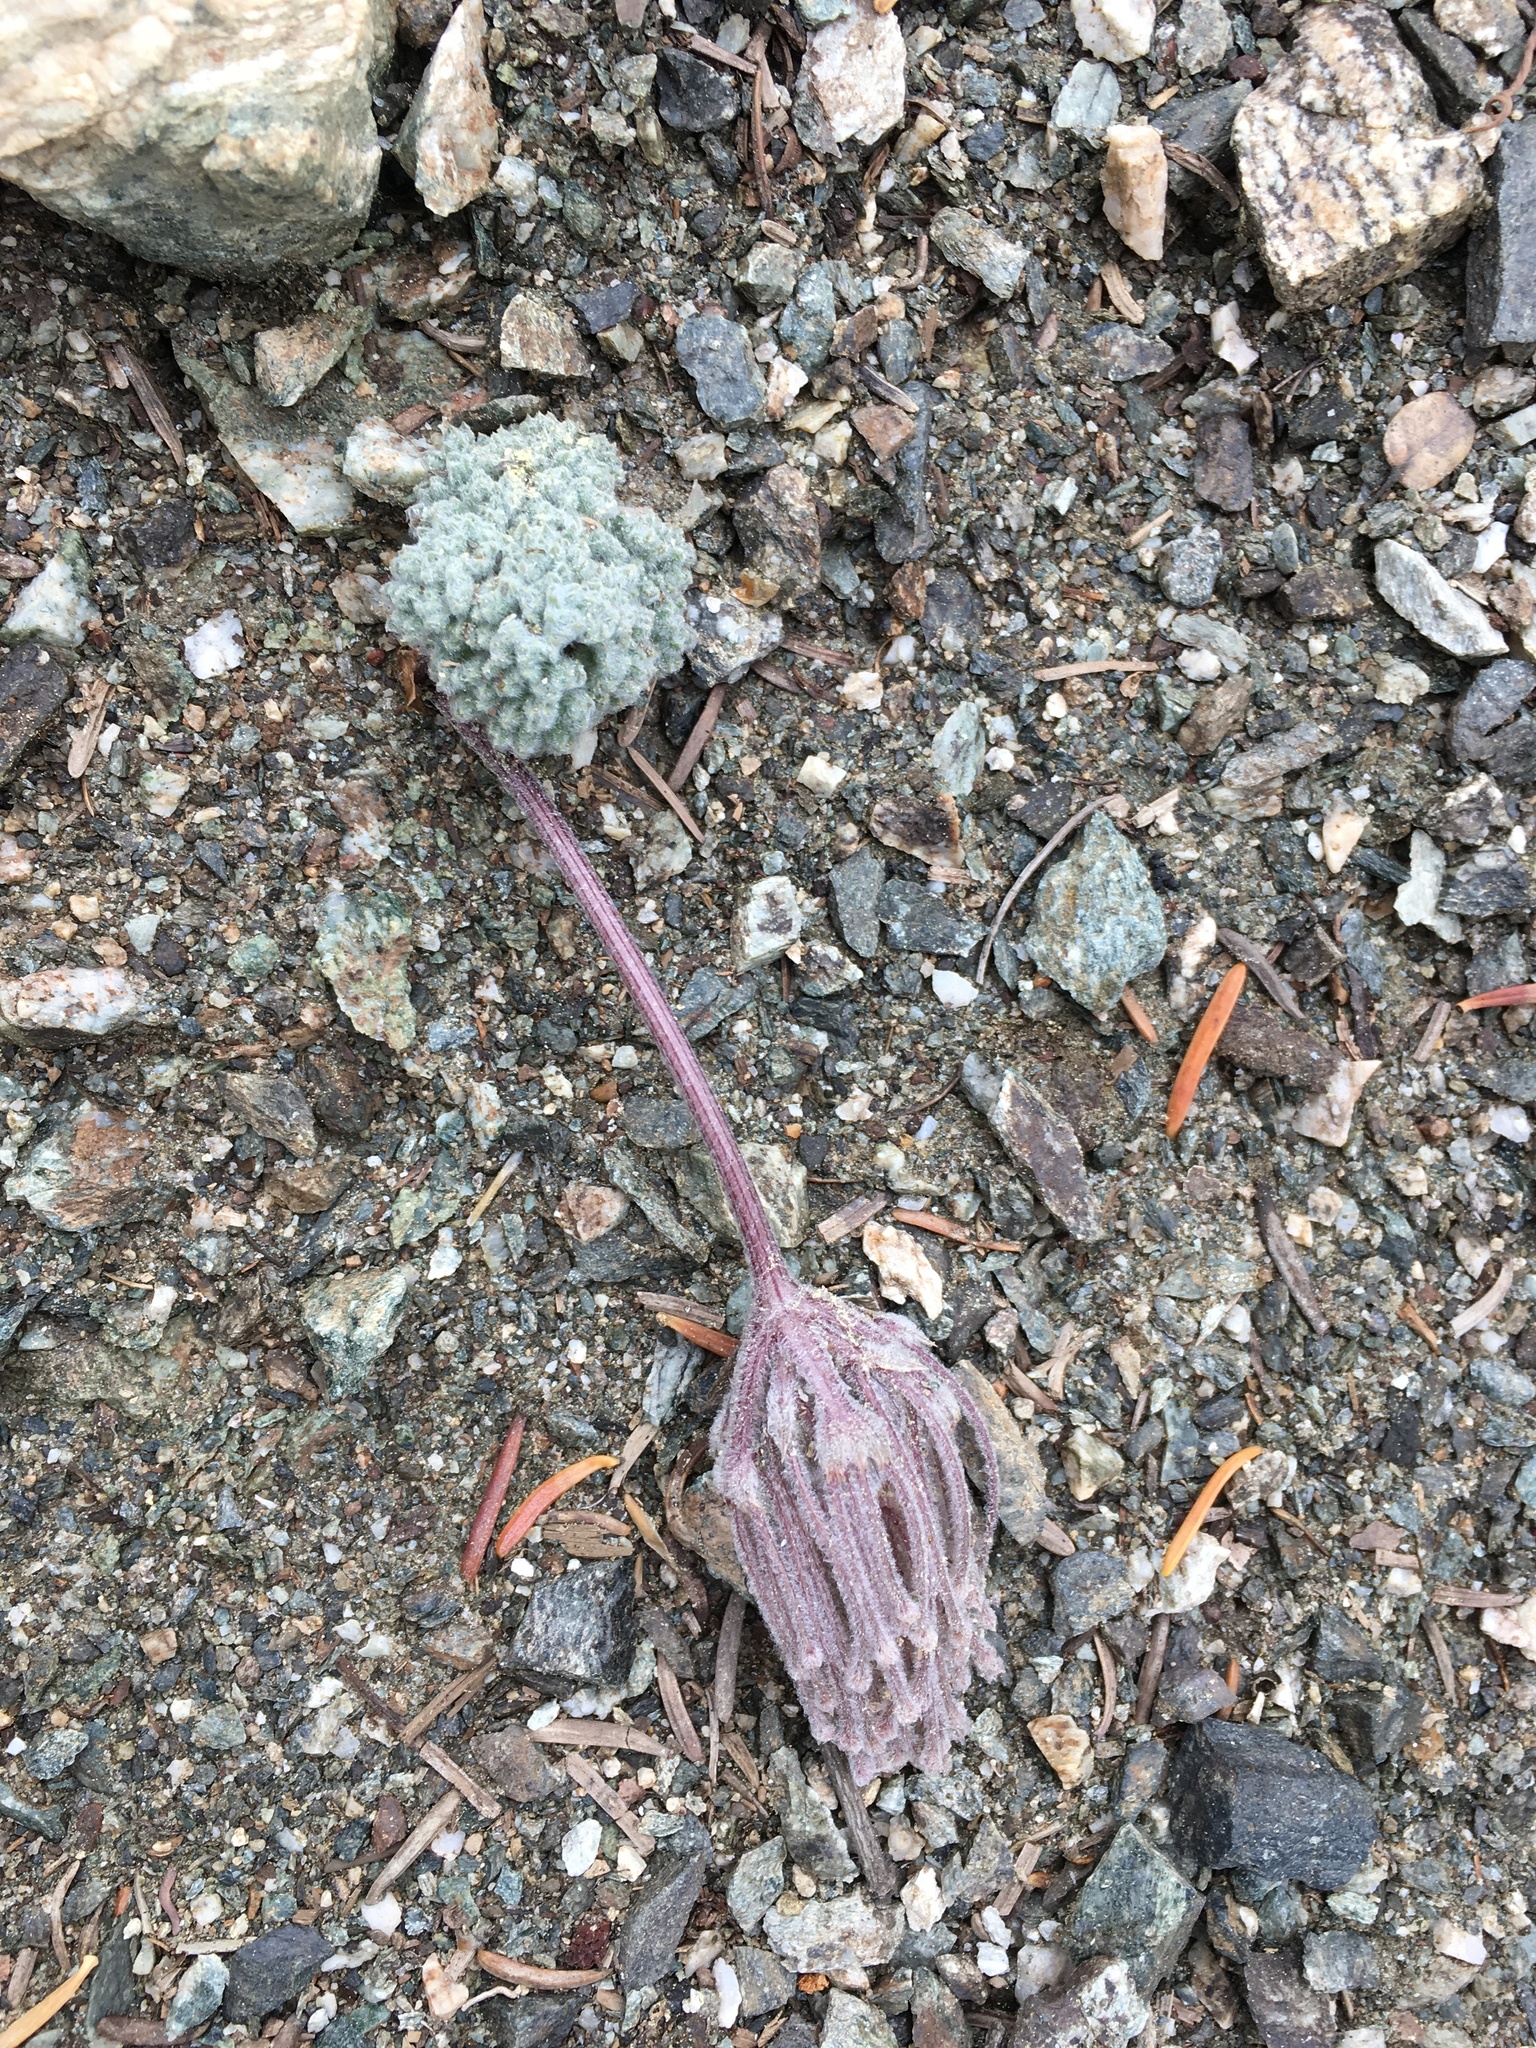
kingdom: Plantae
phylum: Tracheophyta
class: Magnoliopsida
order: Apiales
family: Apiaceae
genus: Oreonana
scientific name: Oreonana vestita
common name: Woolly mountain-parsley
